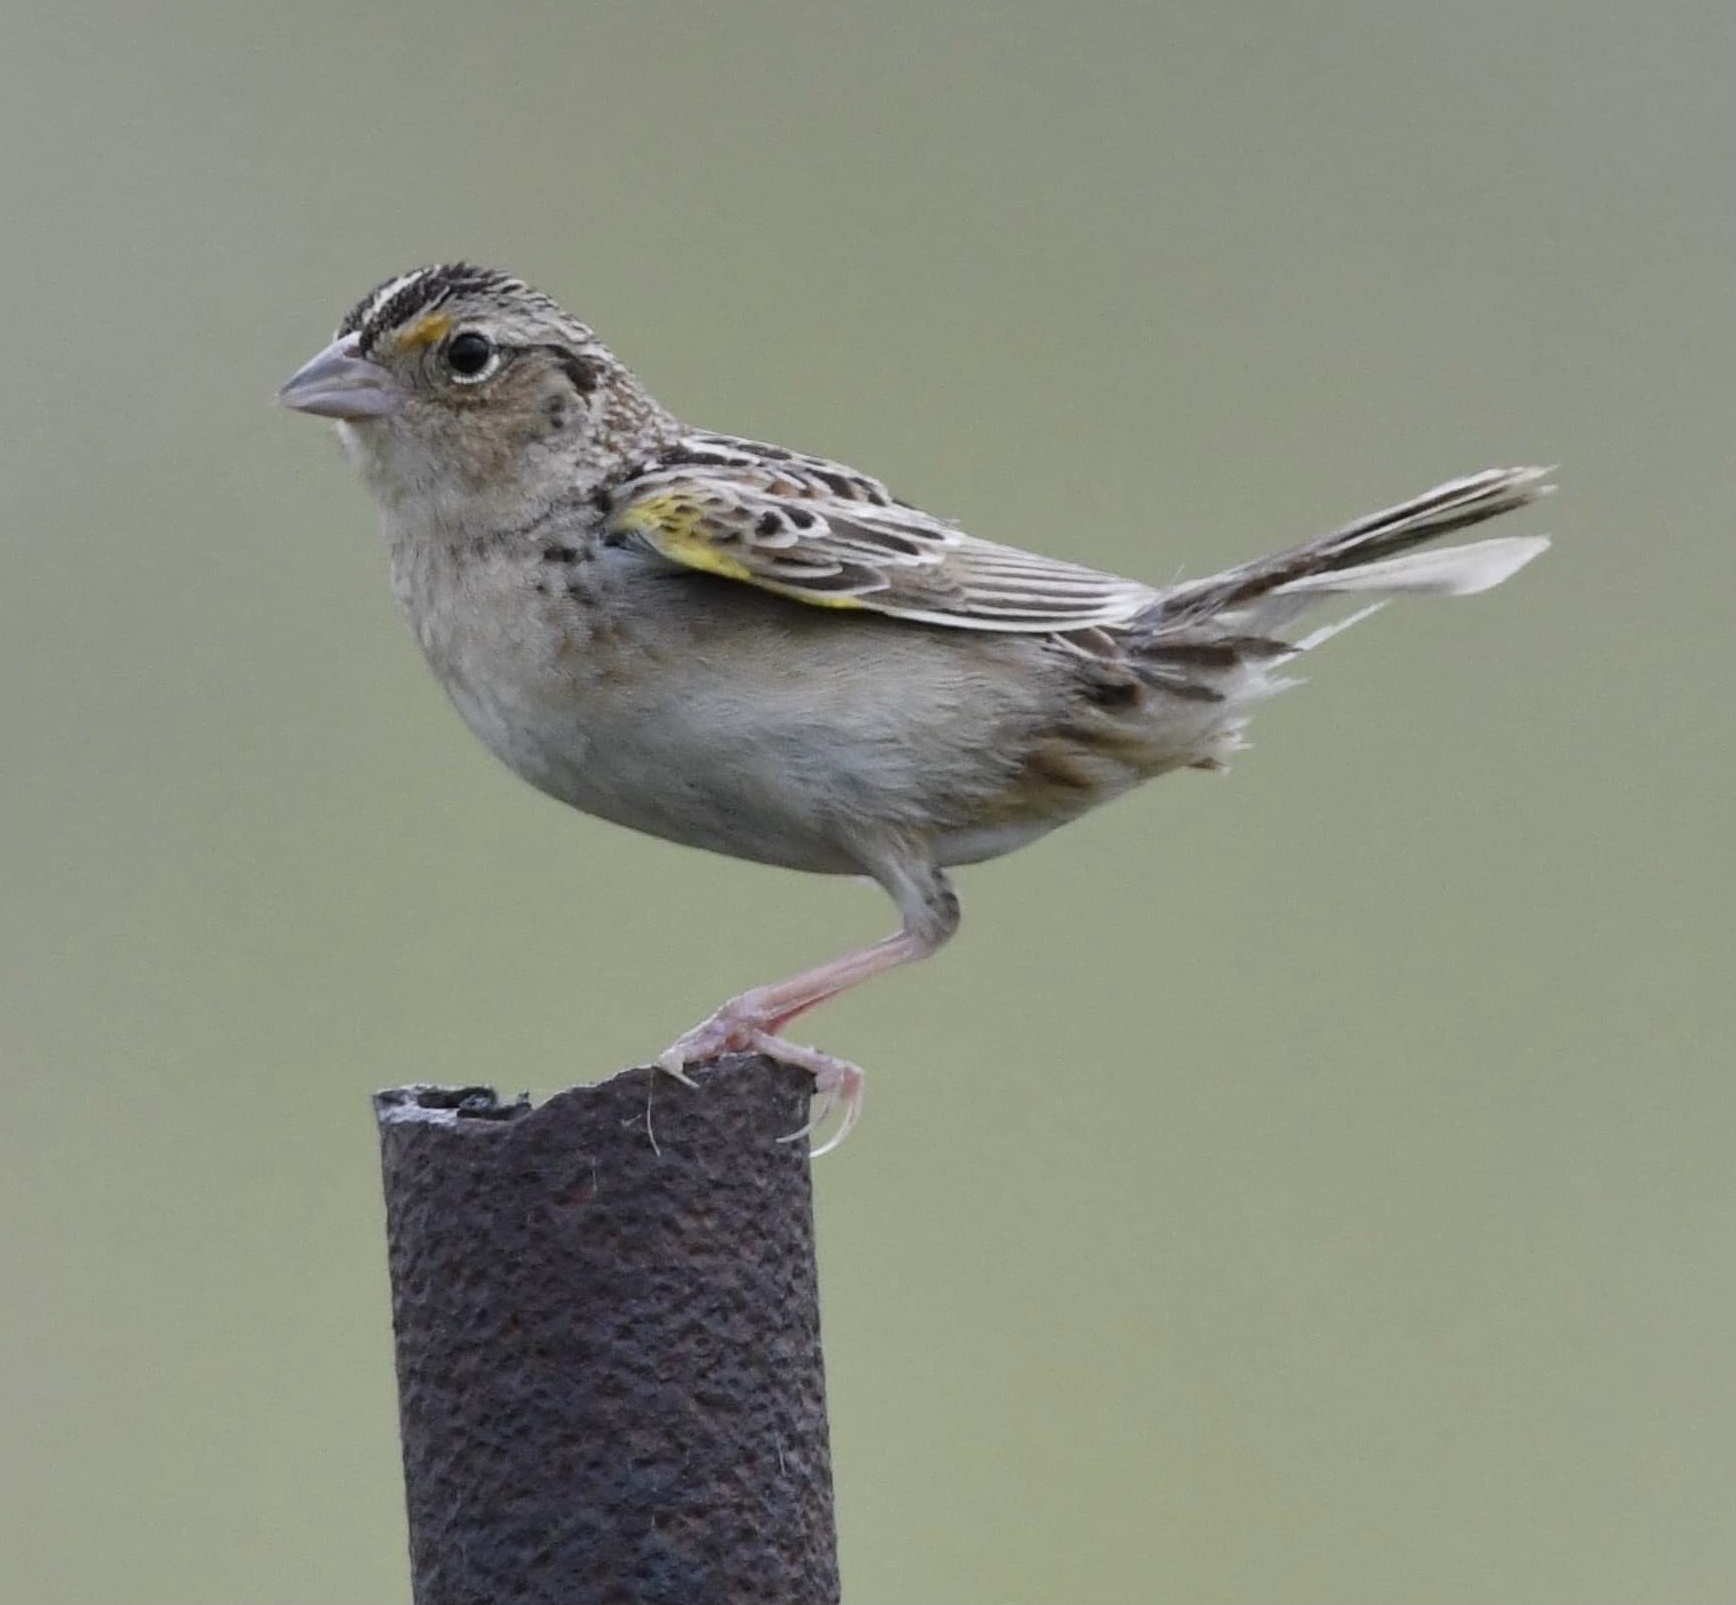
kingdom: Animalia
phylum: Chordata
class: Aves
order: Passeriformes
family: Passerellidae
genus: Ammodramus
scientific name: Ammodramus savannarum
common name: Grasshopper sparrow
